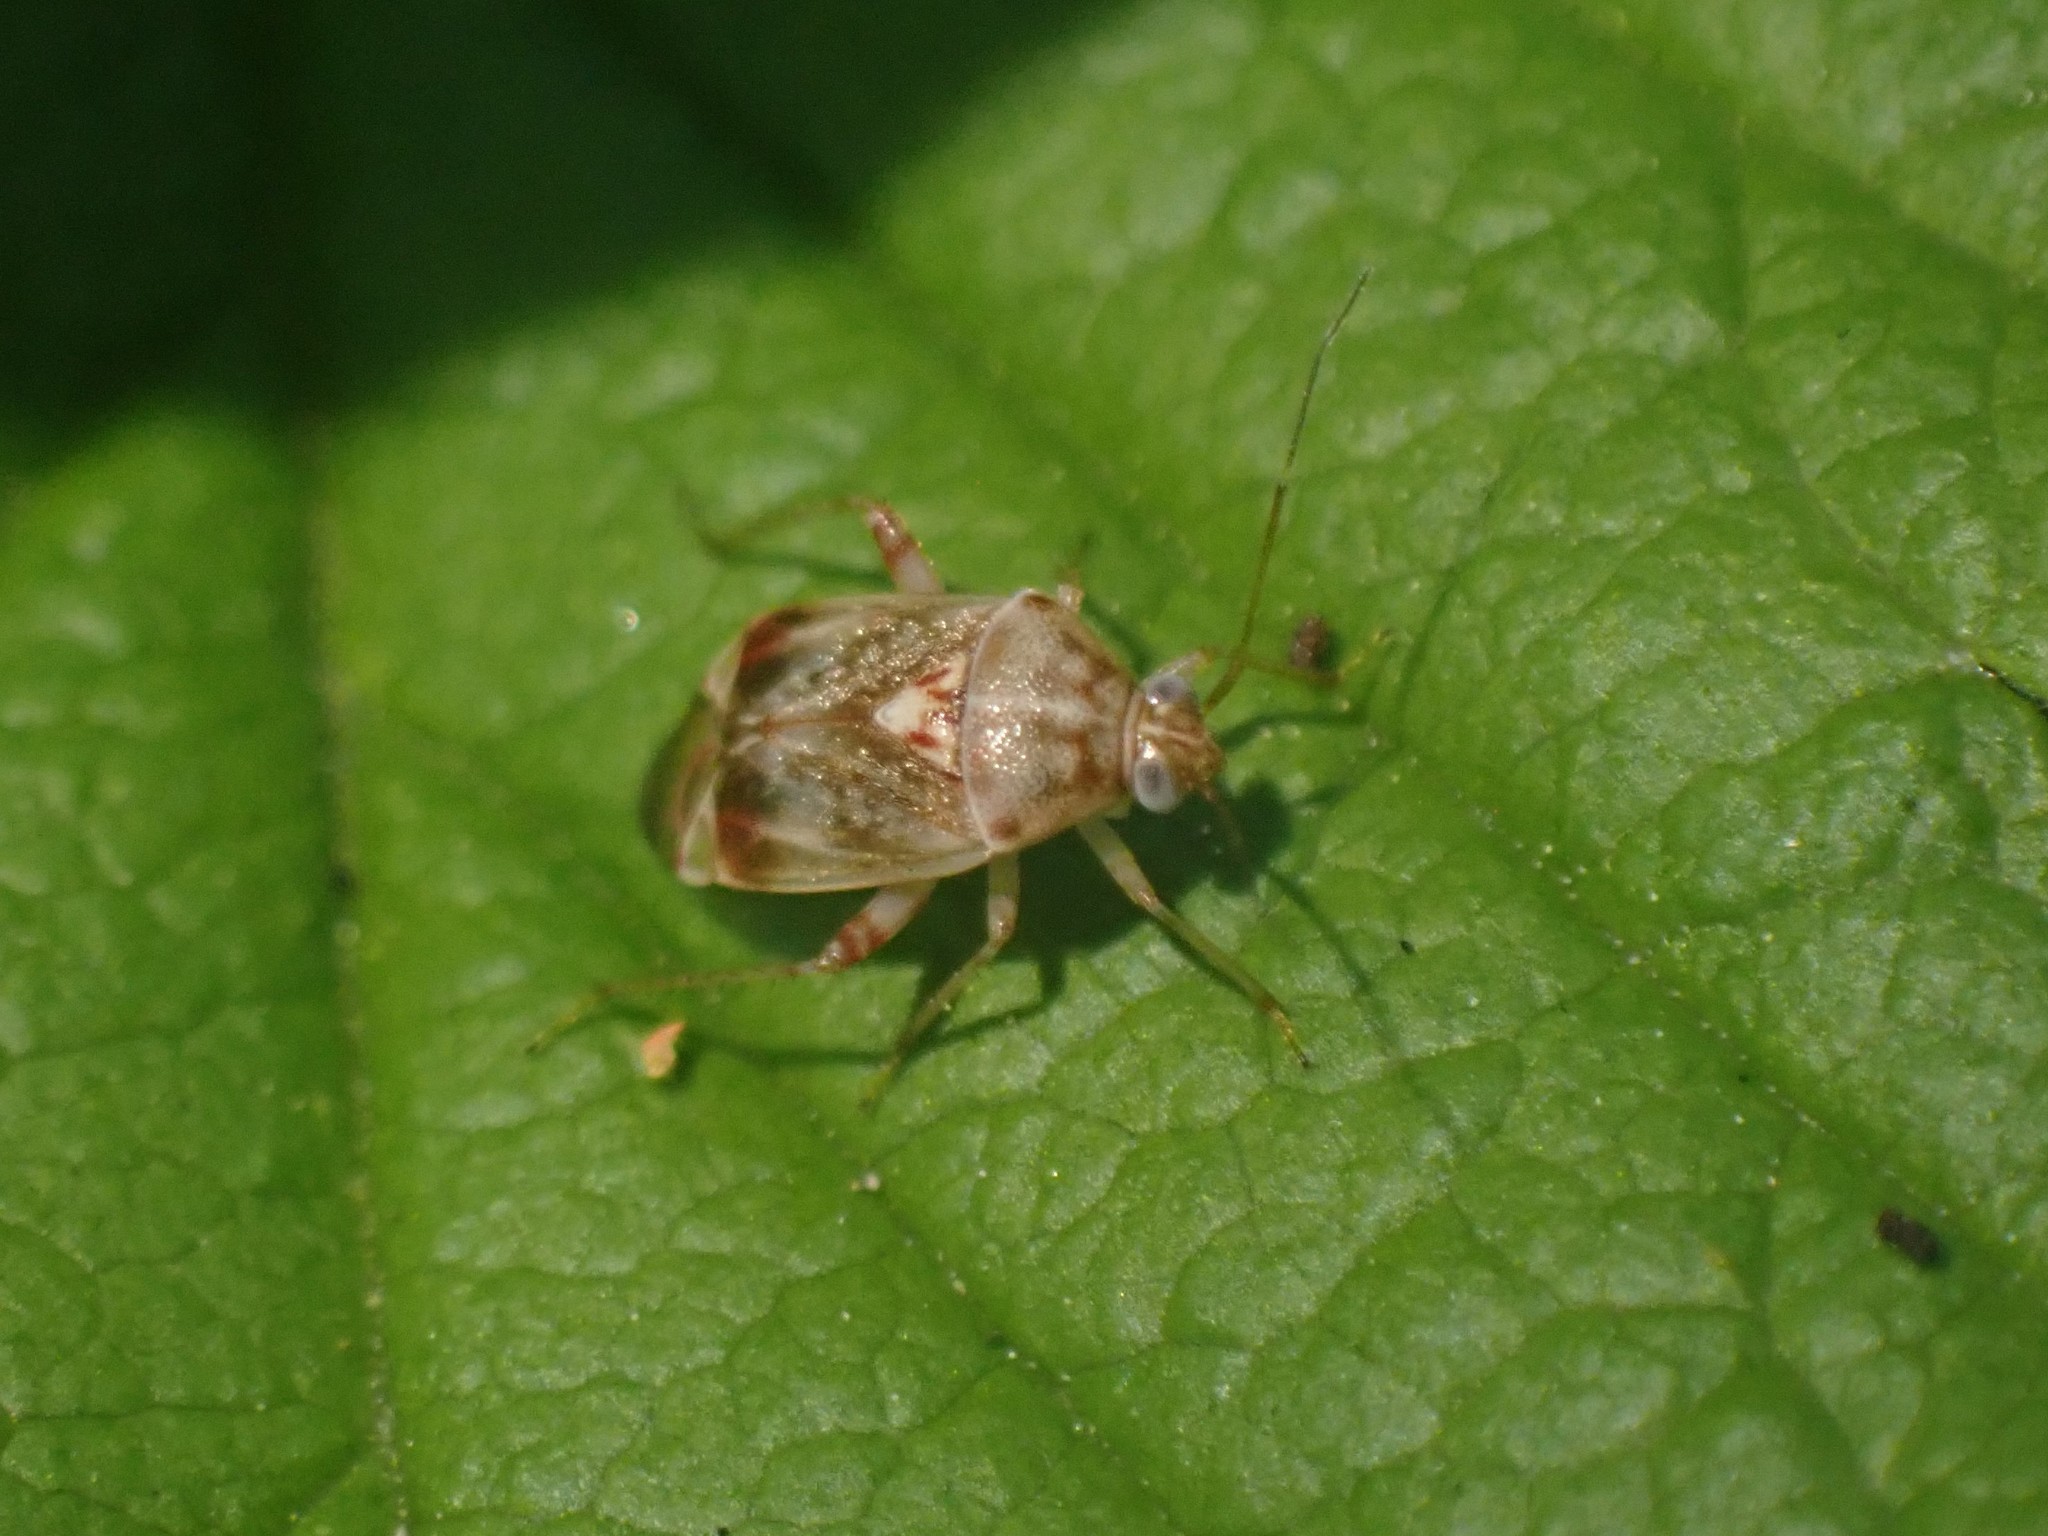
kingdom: Animalia
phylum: Arthropoda
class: Insecta
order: Hemiptera
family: Miridae
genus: Nonlygus
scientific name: Nonlygus nubilatus
